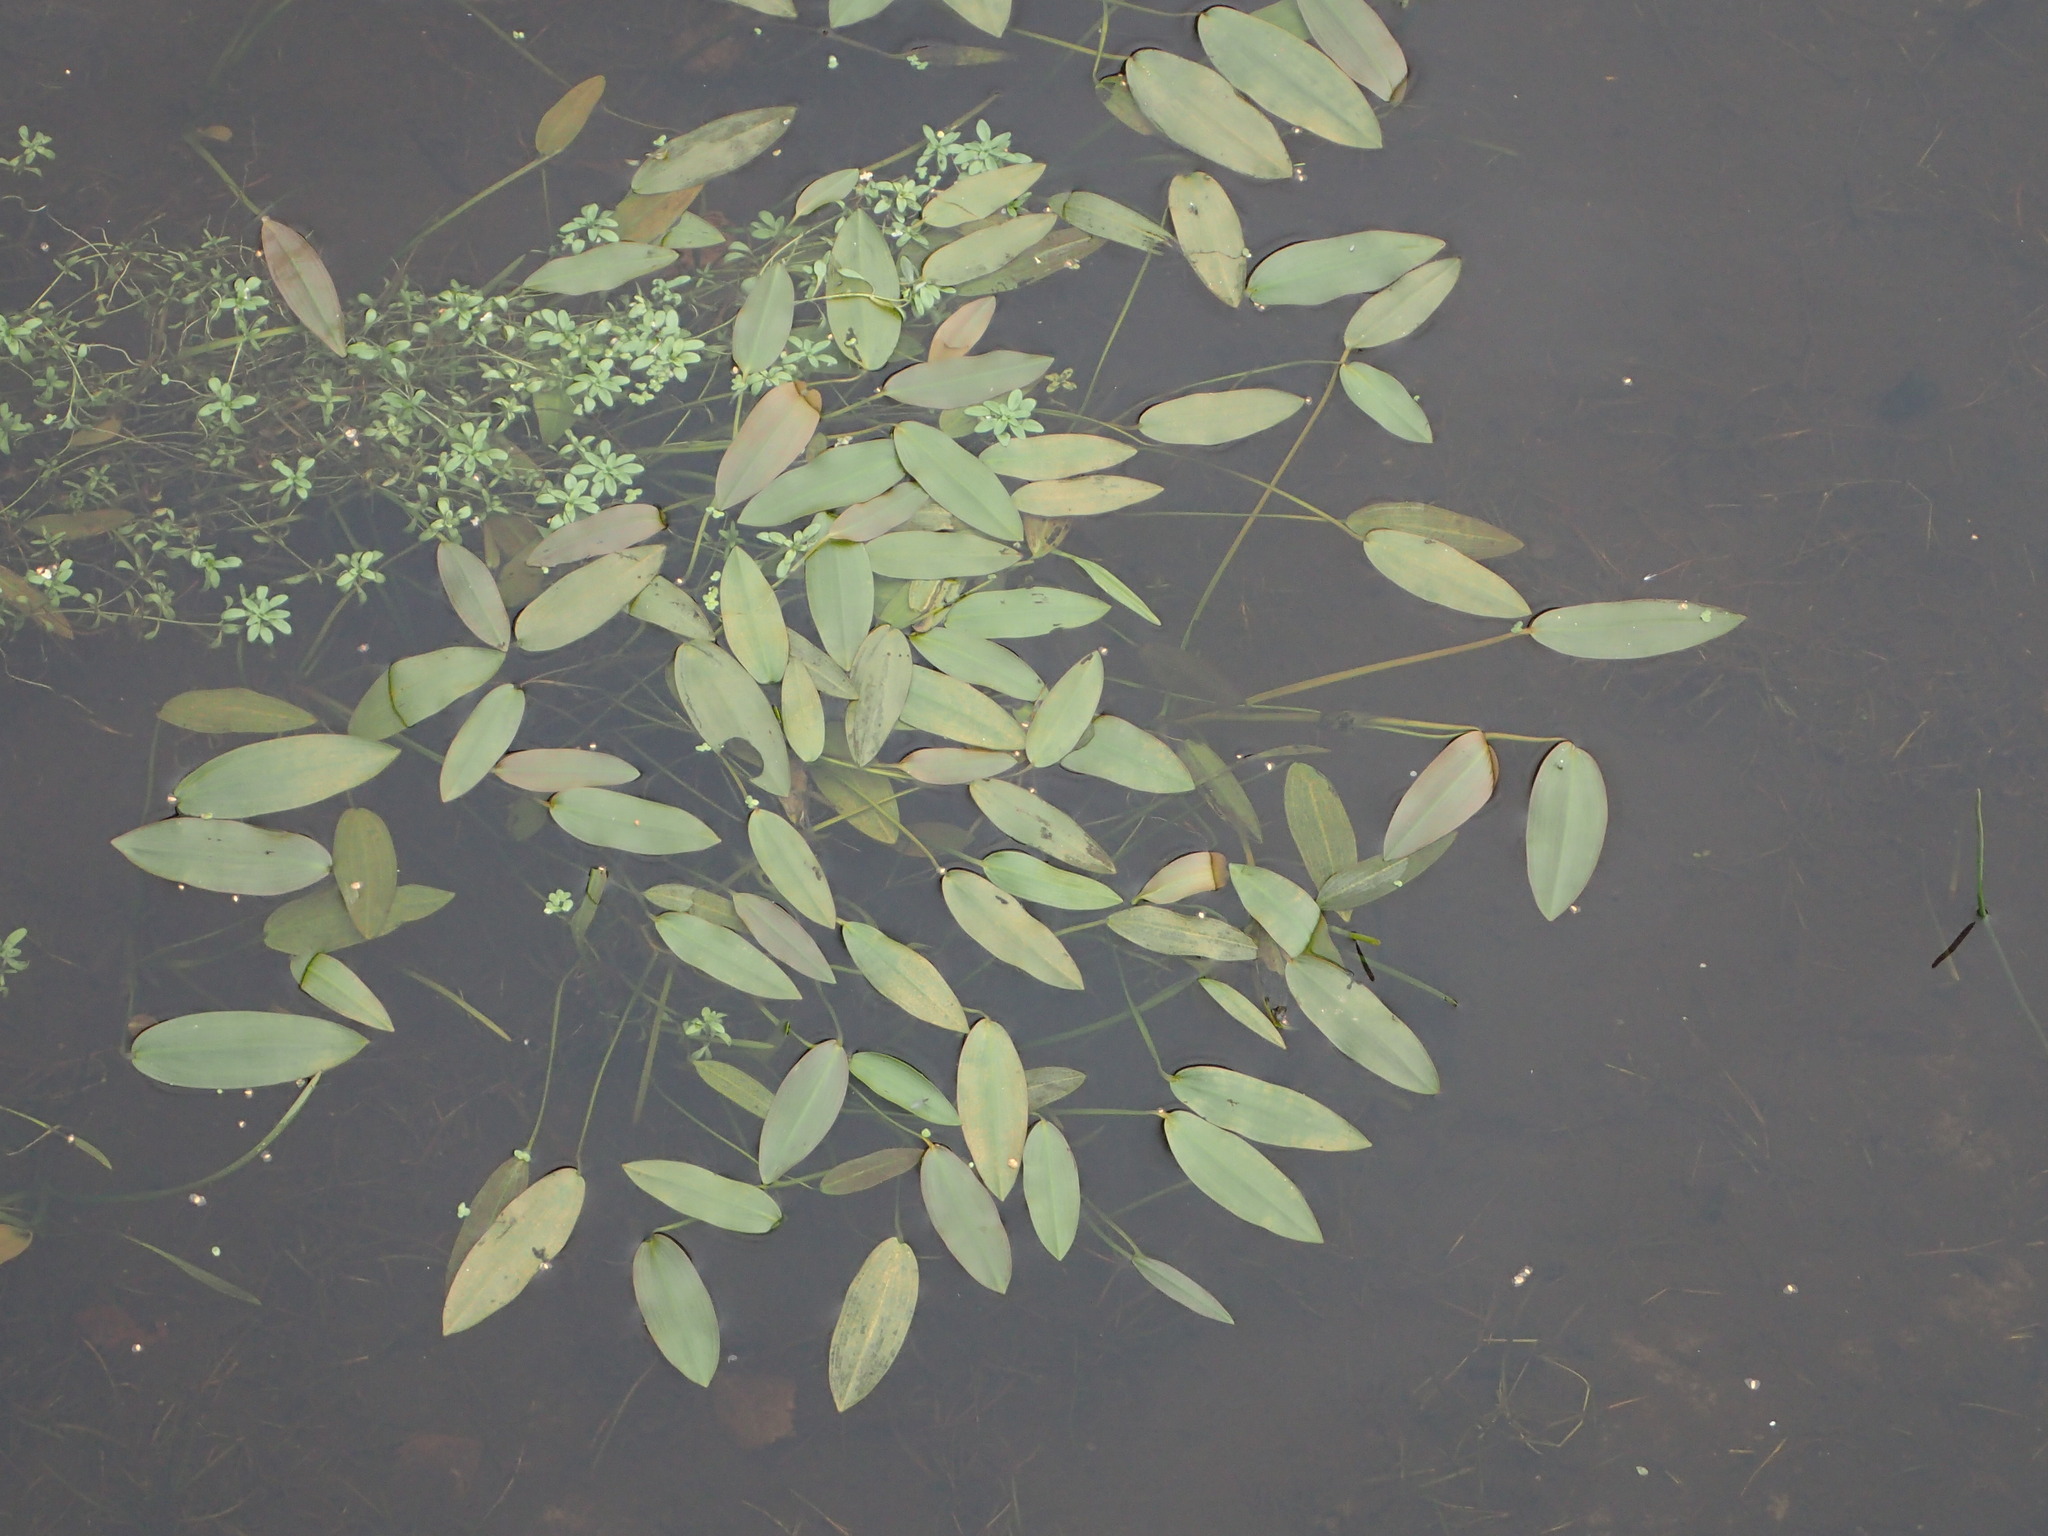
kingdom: Plantae
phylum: Tracheophyta
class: Liliopsida
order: Alismatales
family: Potamogetonaceae
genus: Potamogeton
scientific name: Potamogeton nodosus
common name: Loddon pondweed
